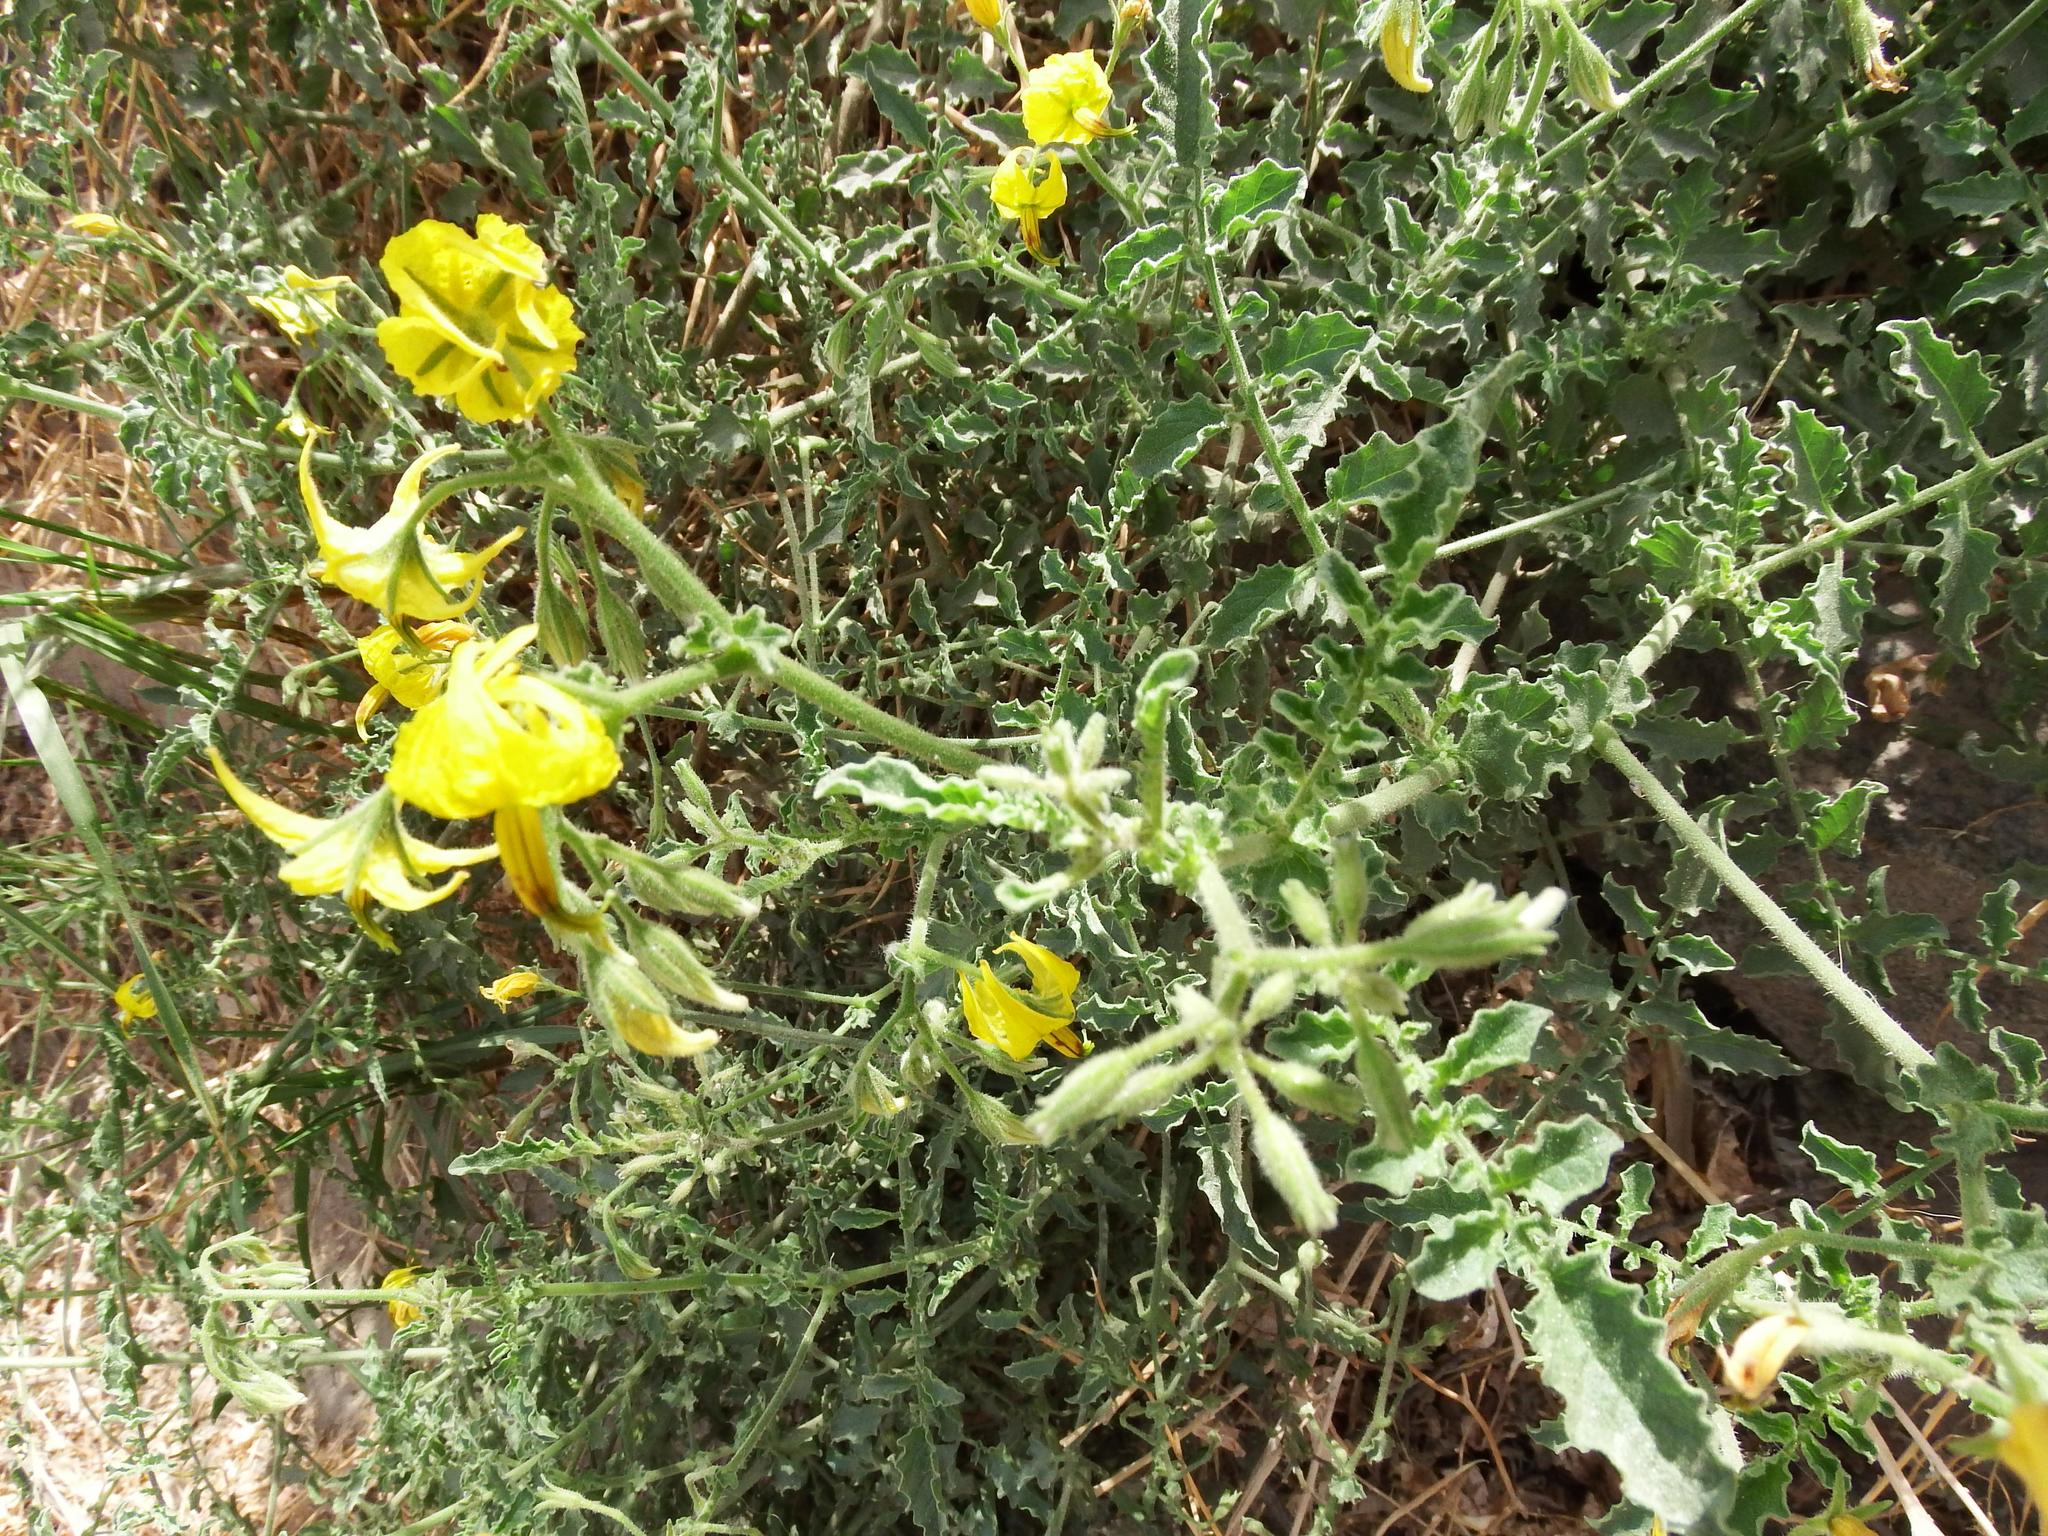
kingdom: Plantae
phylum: Tracheophyta
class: Magnoliopsida
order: Solanales
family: Solanaceae
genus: Solanum
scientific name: Solanum peruvianum
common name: Peruvian nightshade
